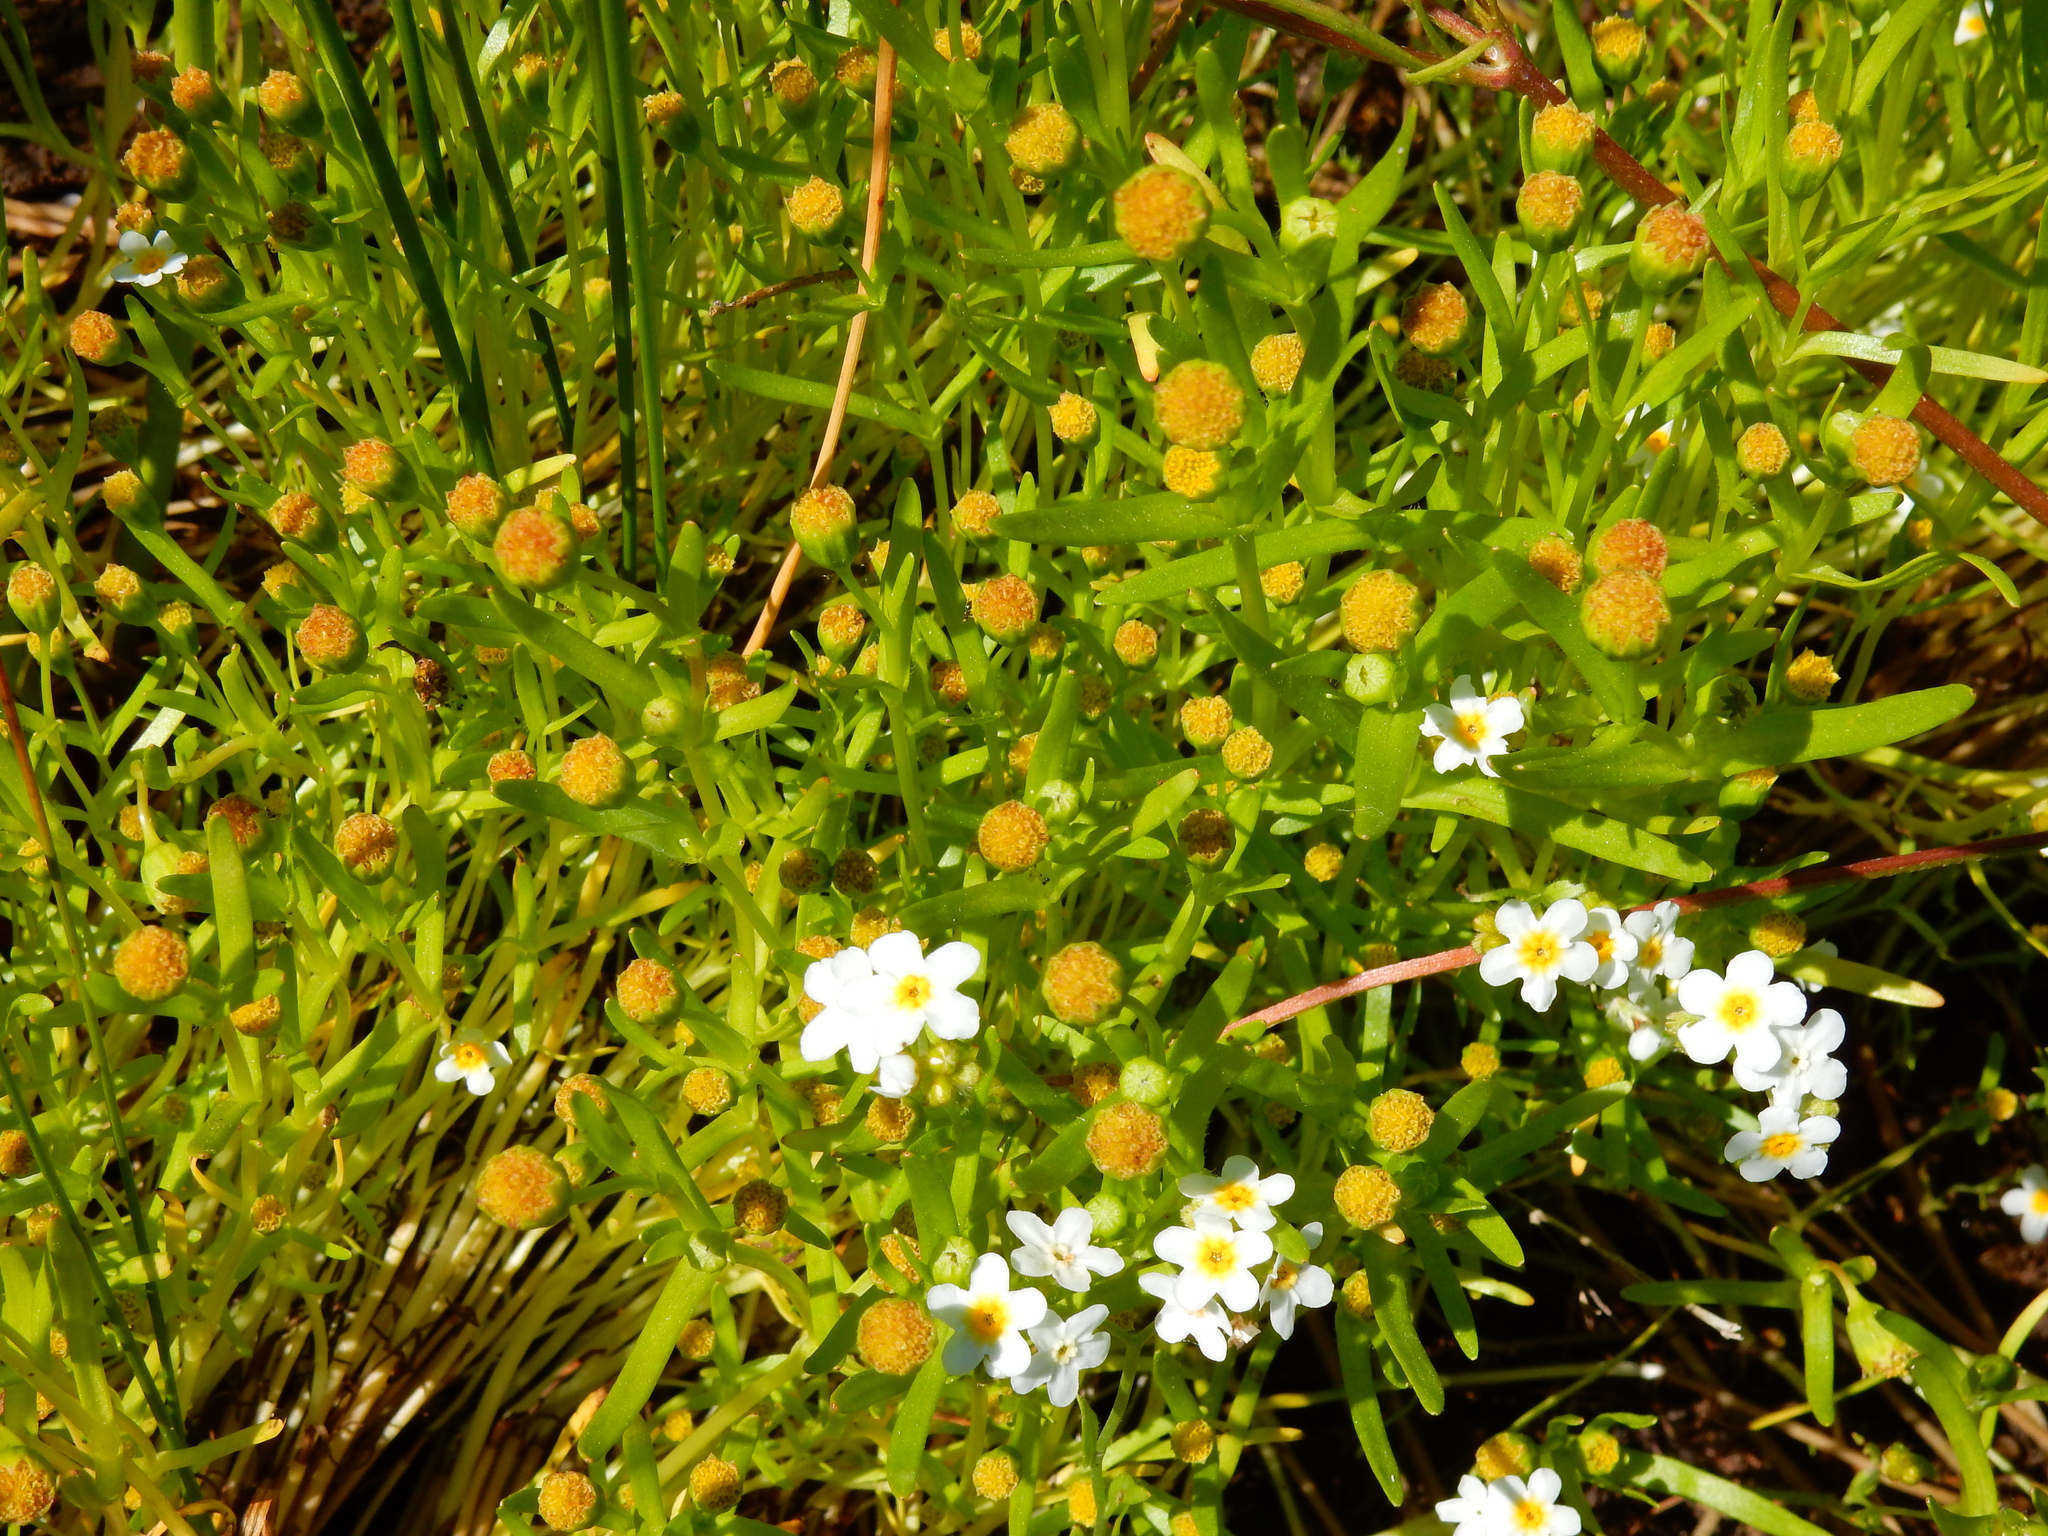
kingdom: Plantae
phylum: Tracheophyta
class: Magnoliopsida
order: Asterales
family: Asteraceae
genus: Lasthenia
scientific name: Lasthenia glaberrima
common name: Smooth goldfields
